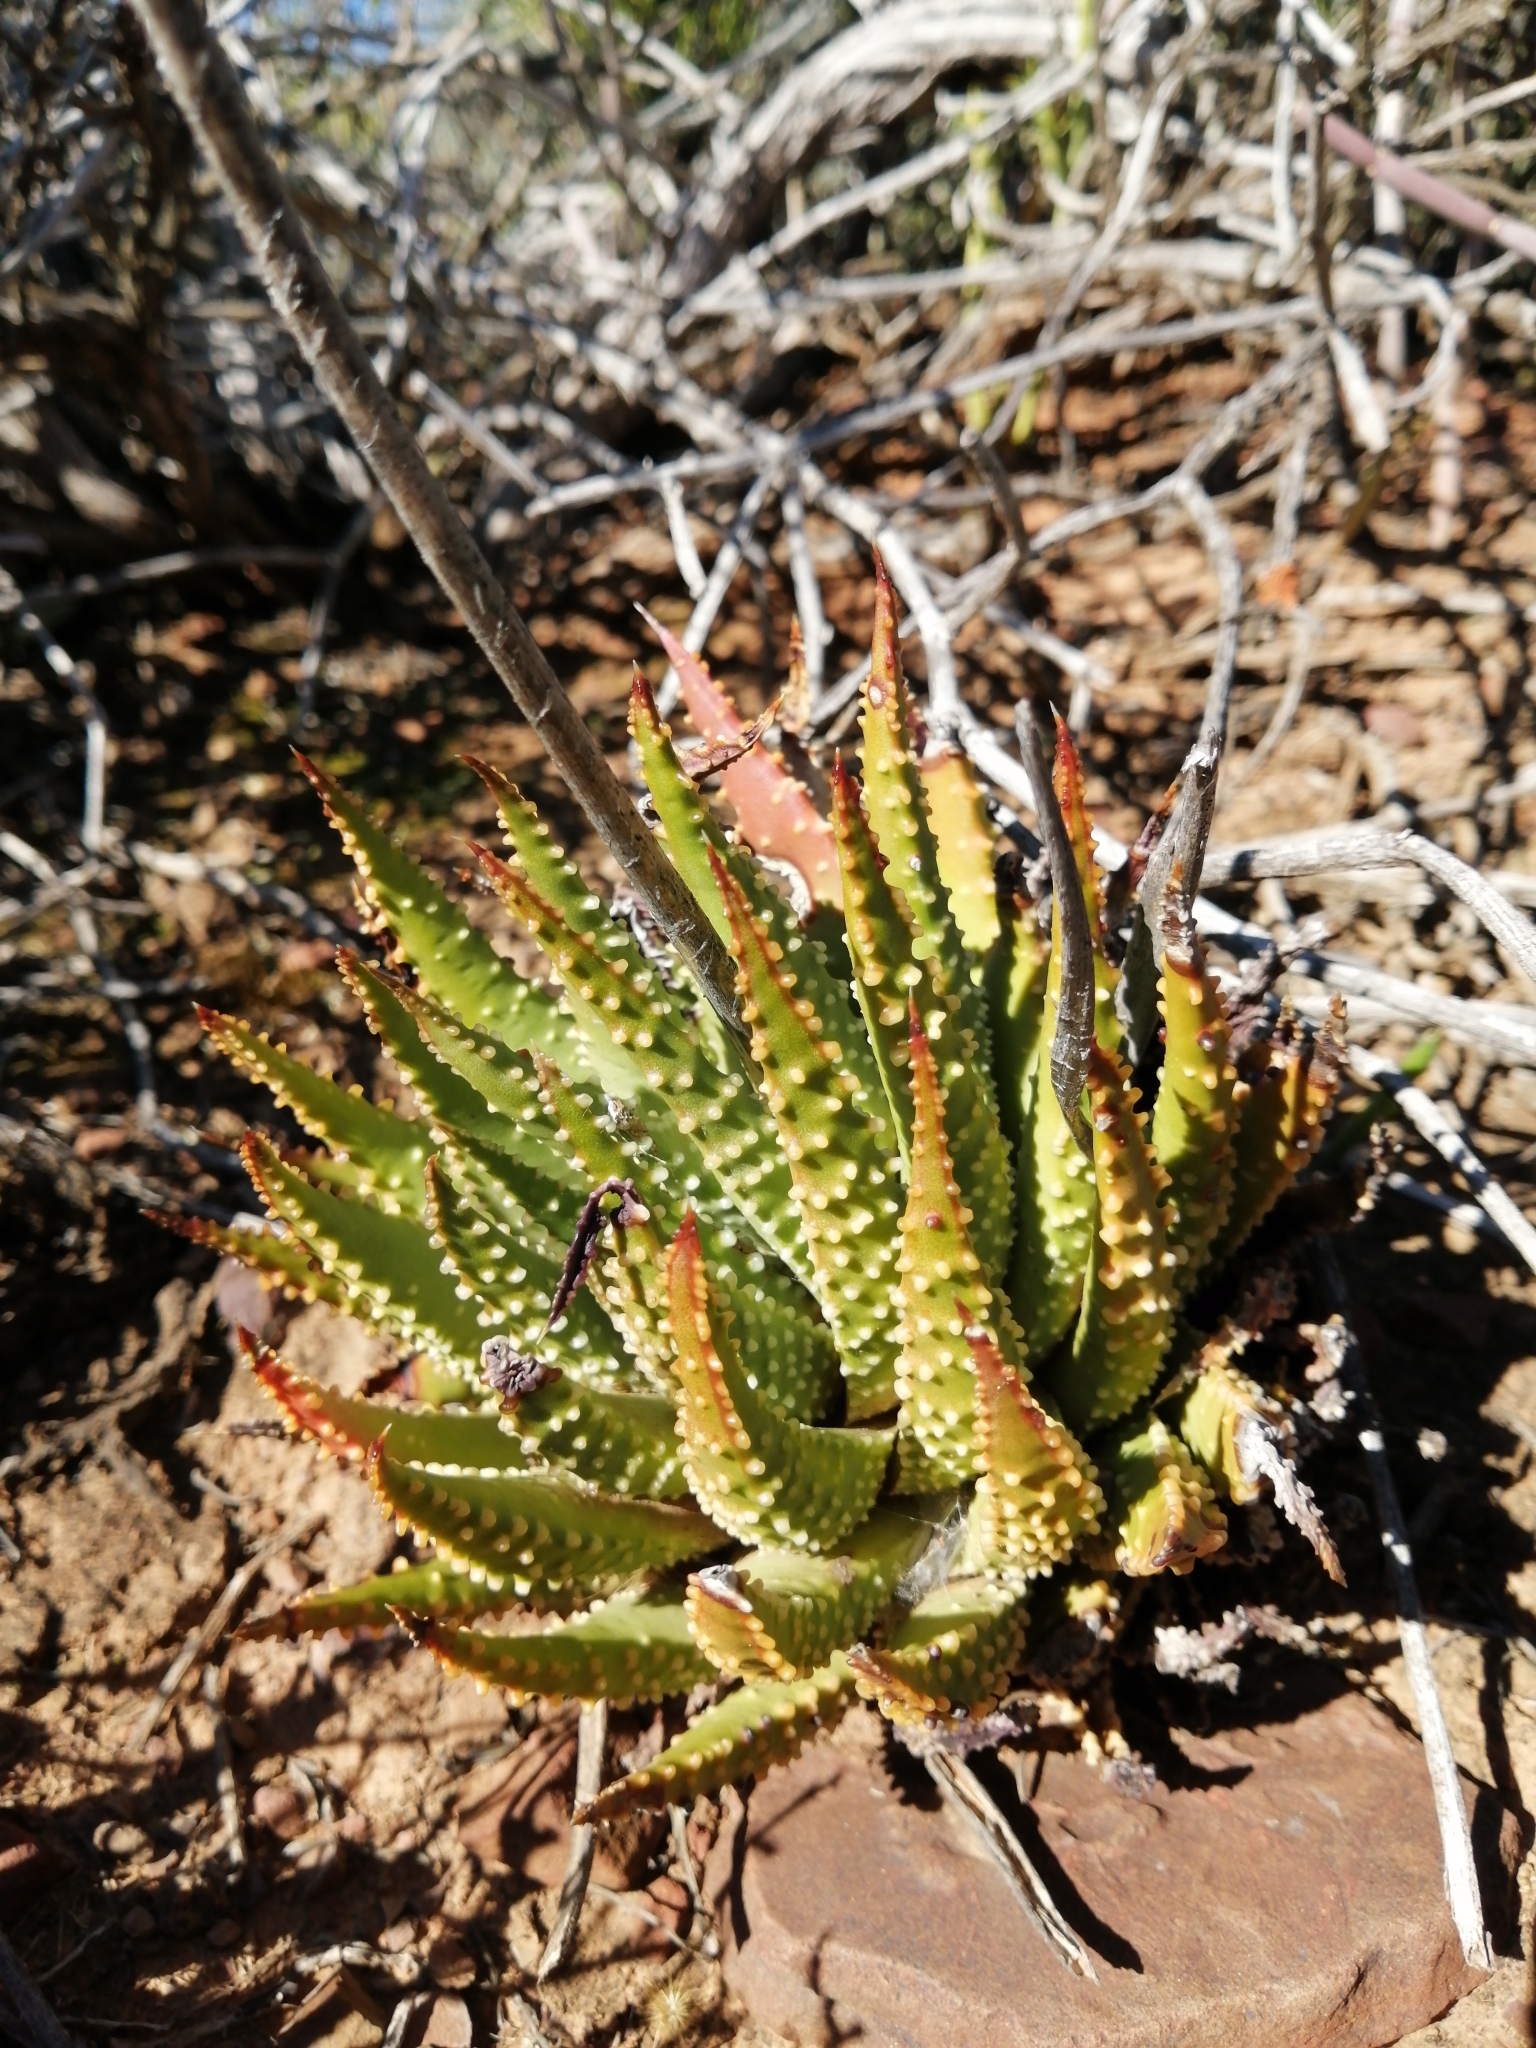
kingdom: Plantae
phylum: Tracheophyta
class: Liliopsida
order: Asparagales
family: Asphodelaceae
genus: Tulista
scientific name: Tulista pumila
